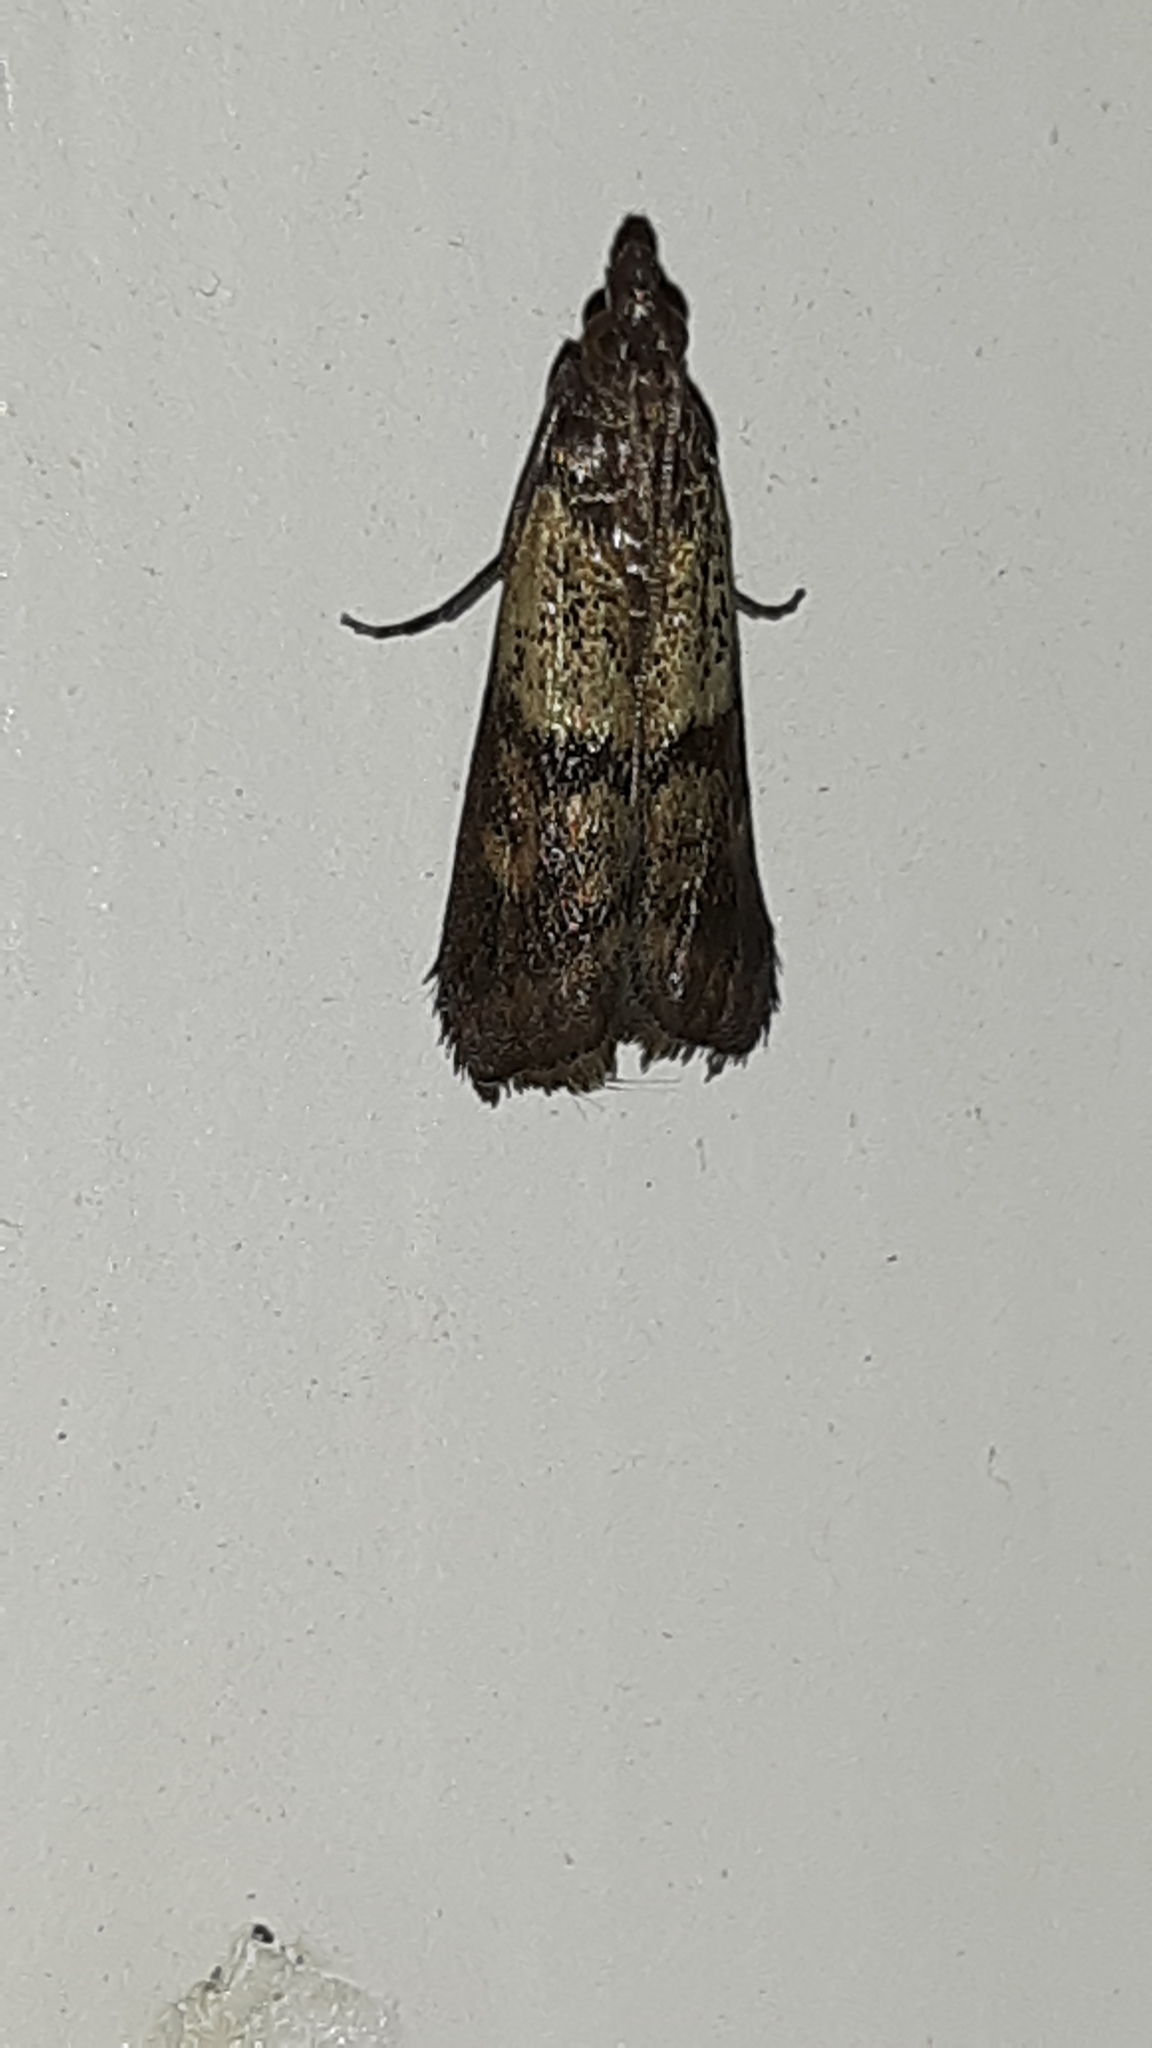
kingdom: Animalia
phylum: Arthropoda
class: Insecta
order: Lepidoptera
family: Pyralidae
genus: Plodia
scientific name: Plodia interpunctella
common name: Indian meal moth
